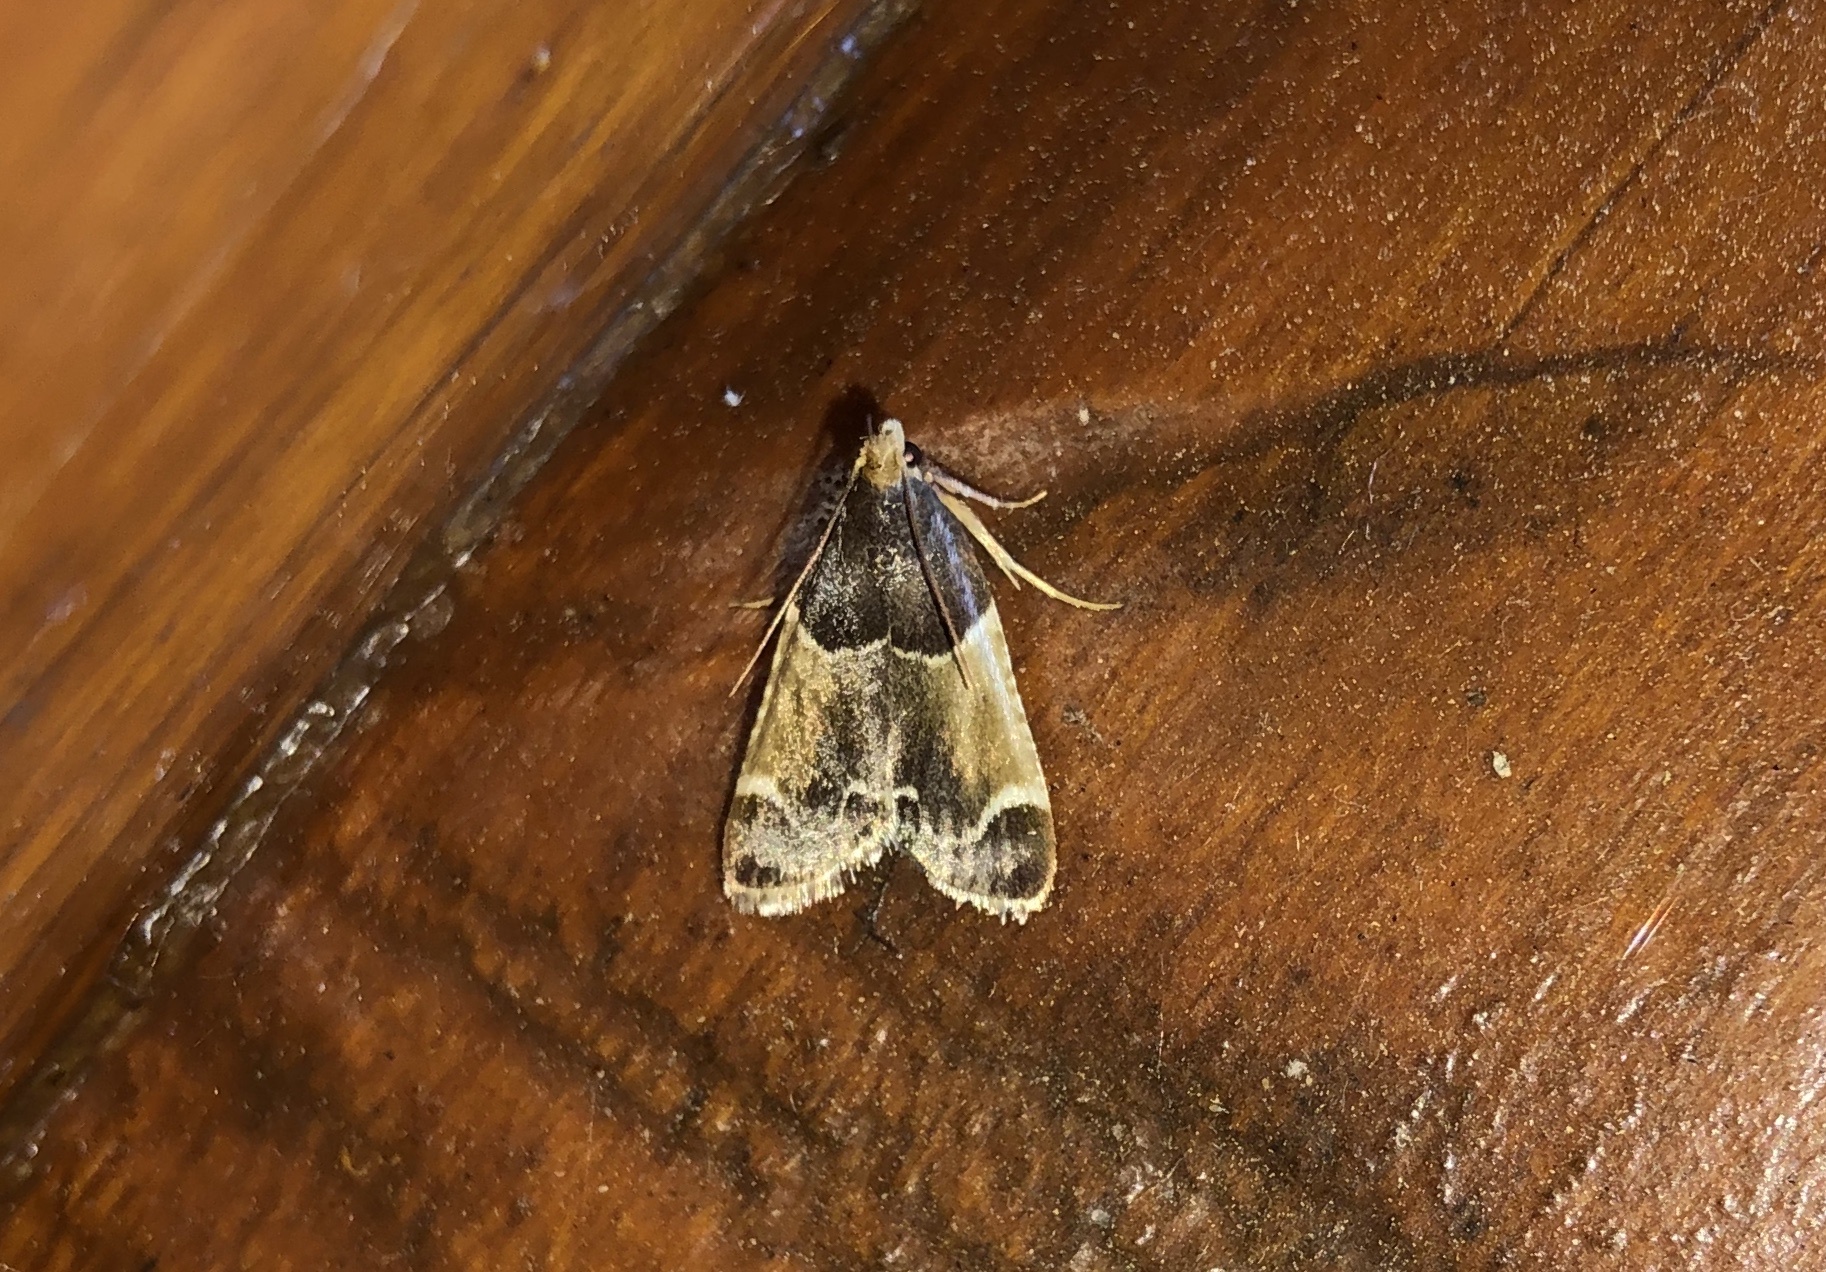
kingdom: Animalia
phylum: Arthropoda
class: Insecta
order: Lepidoptera
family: Pyralidae
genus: Pyralis
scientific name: Pyralis farinalis
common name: Meal moth
